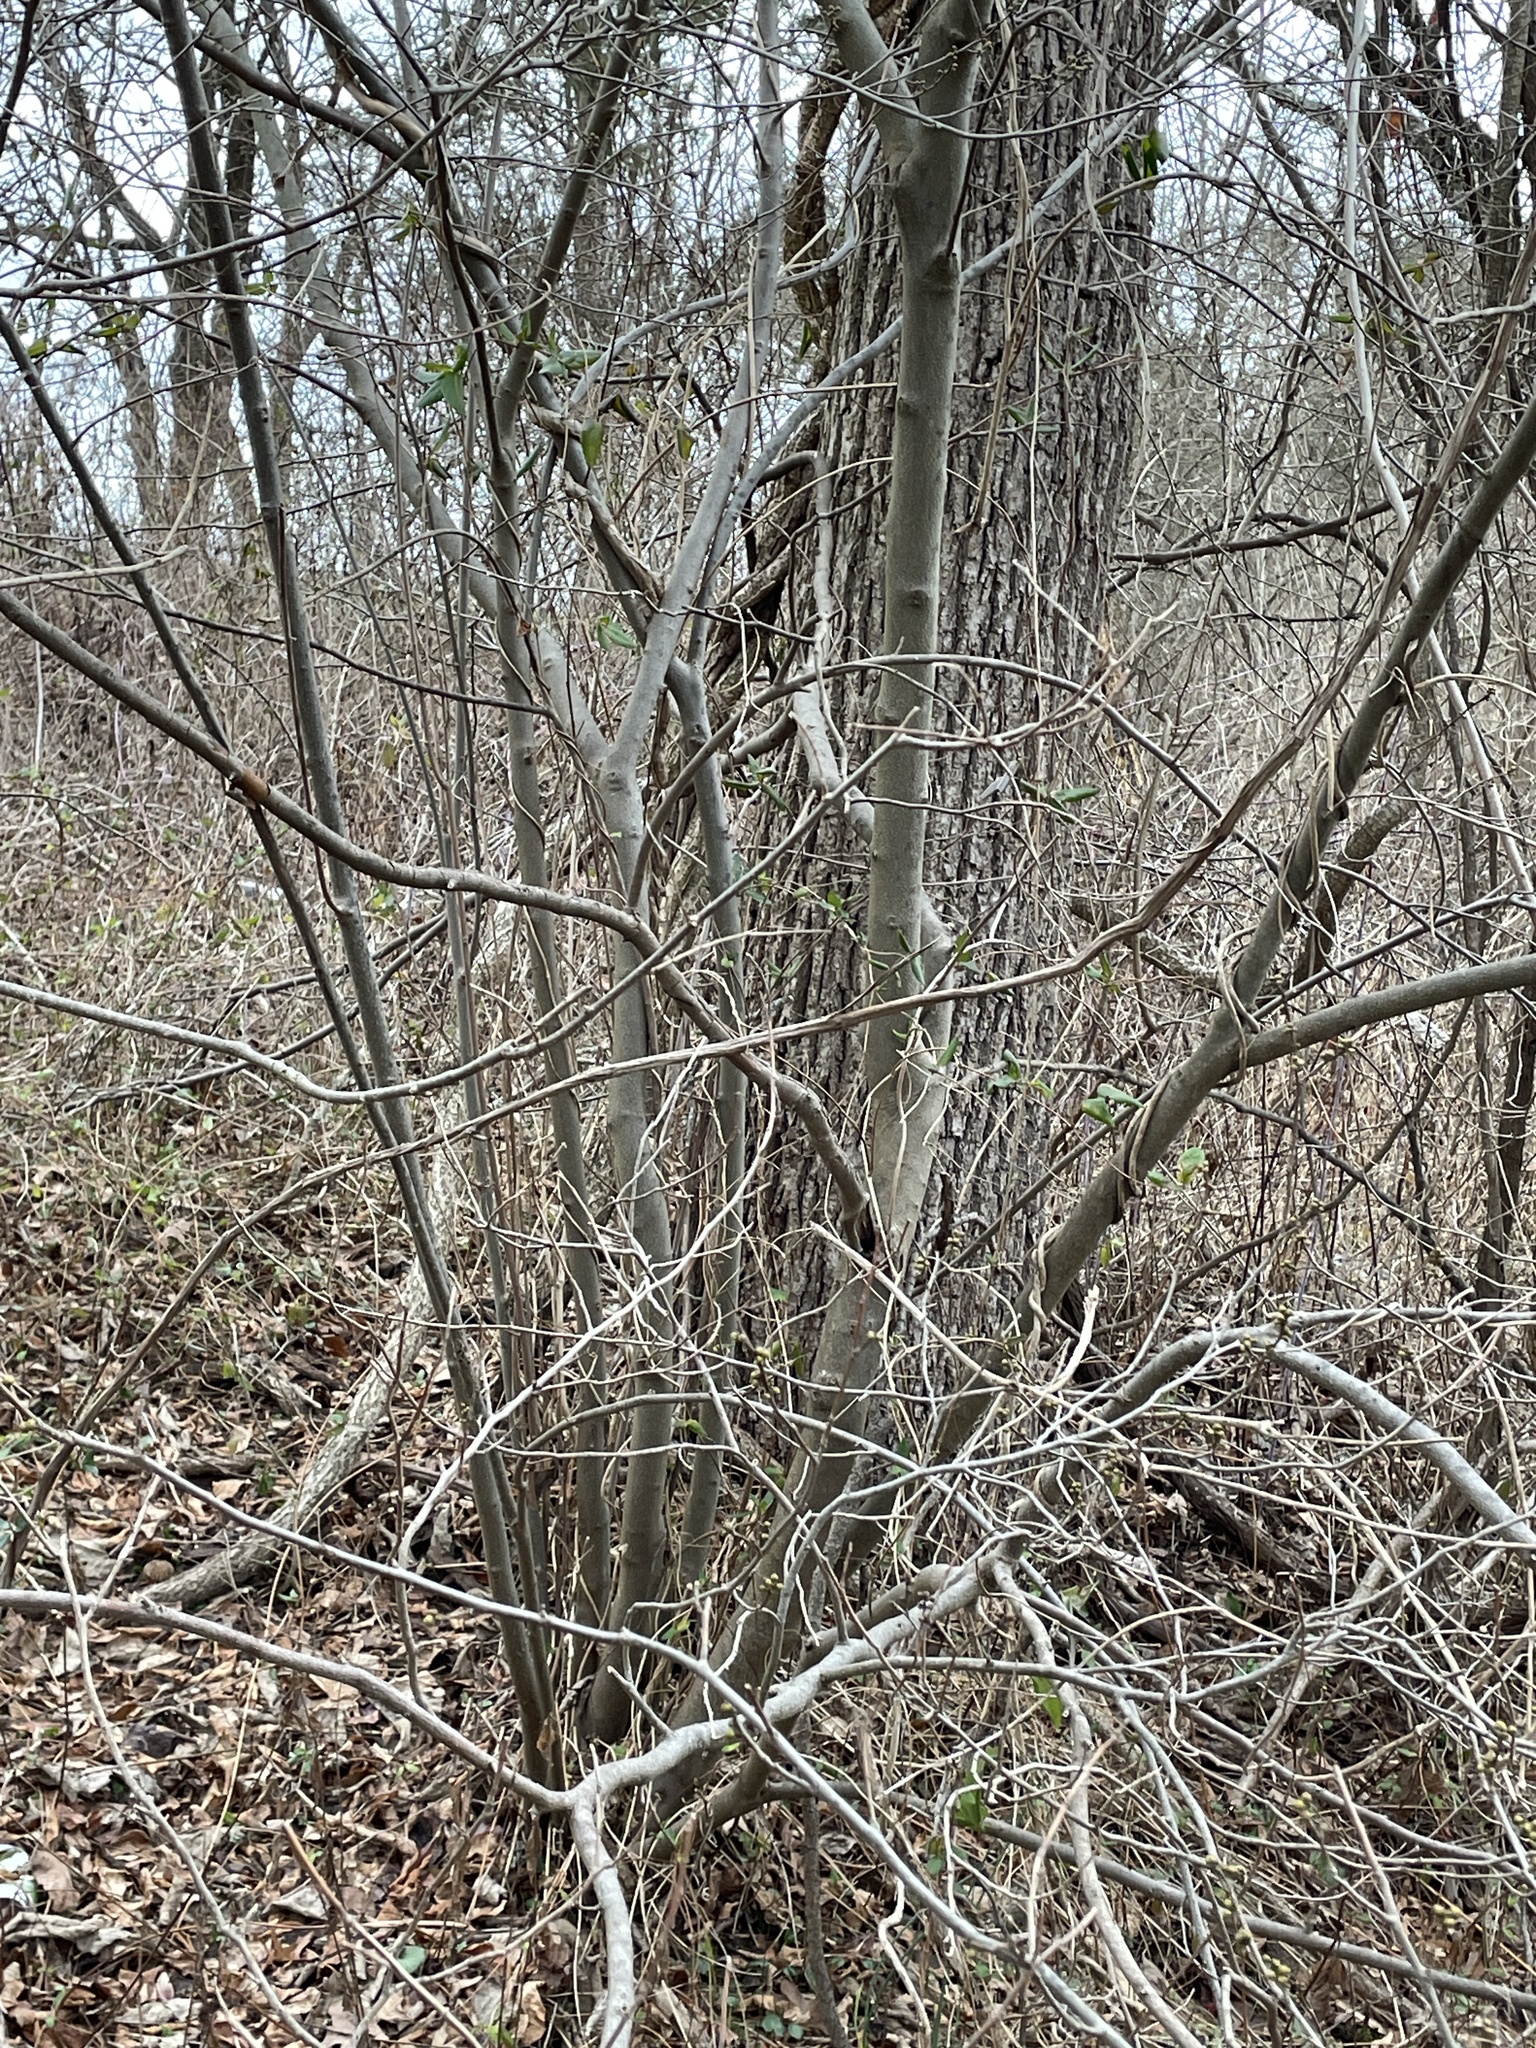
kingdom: Plantae
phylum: Tracheophyta
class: Magnoliopsida
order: Laurales
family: Lauraceae
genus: Lindera
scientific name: Lindera benzoin
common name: Spicebush
